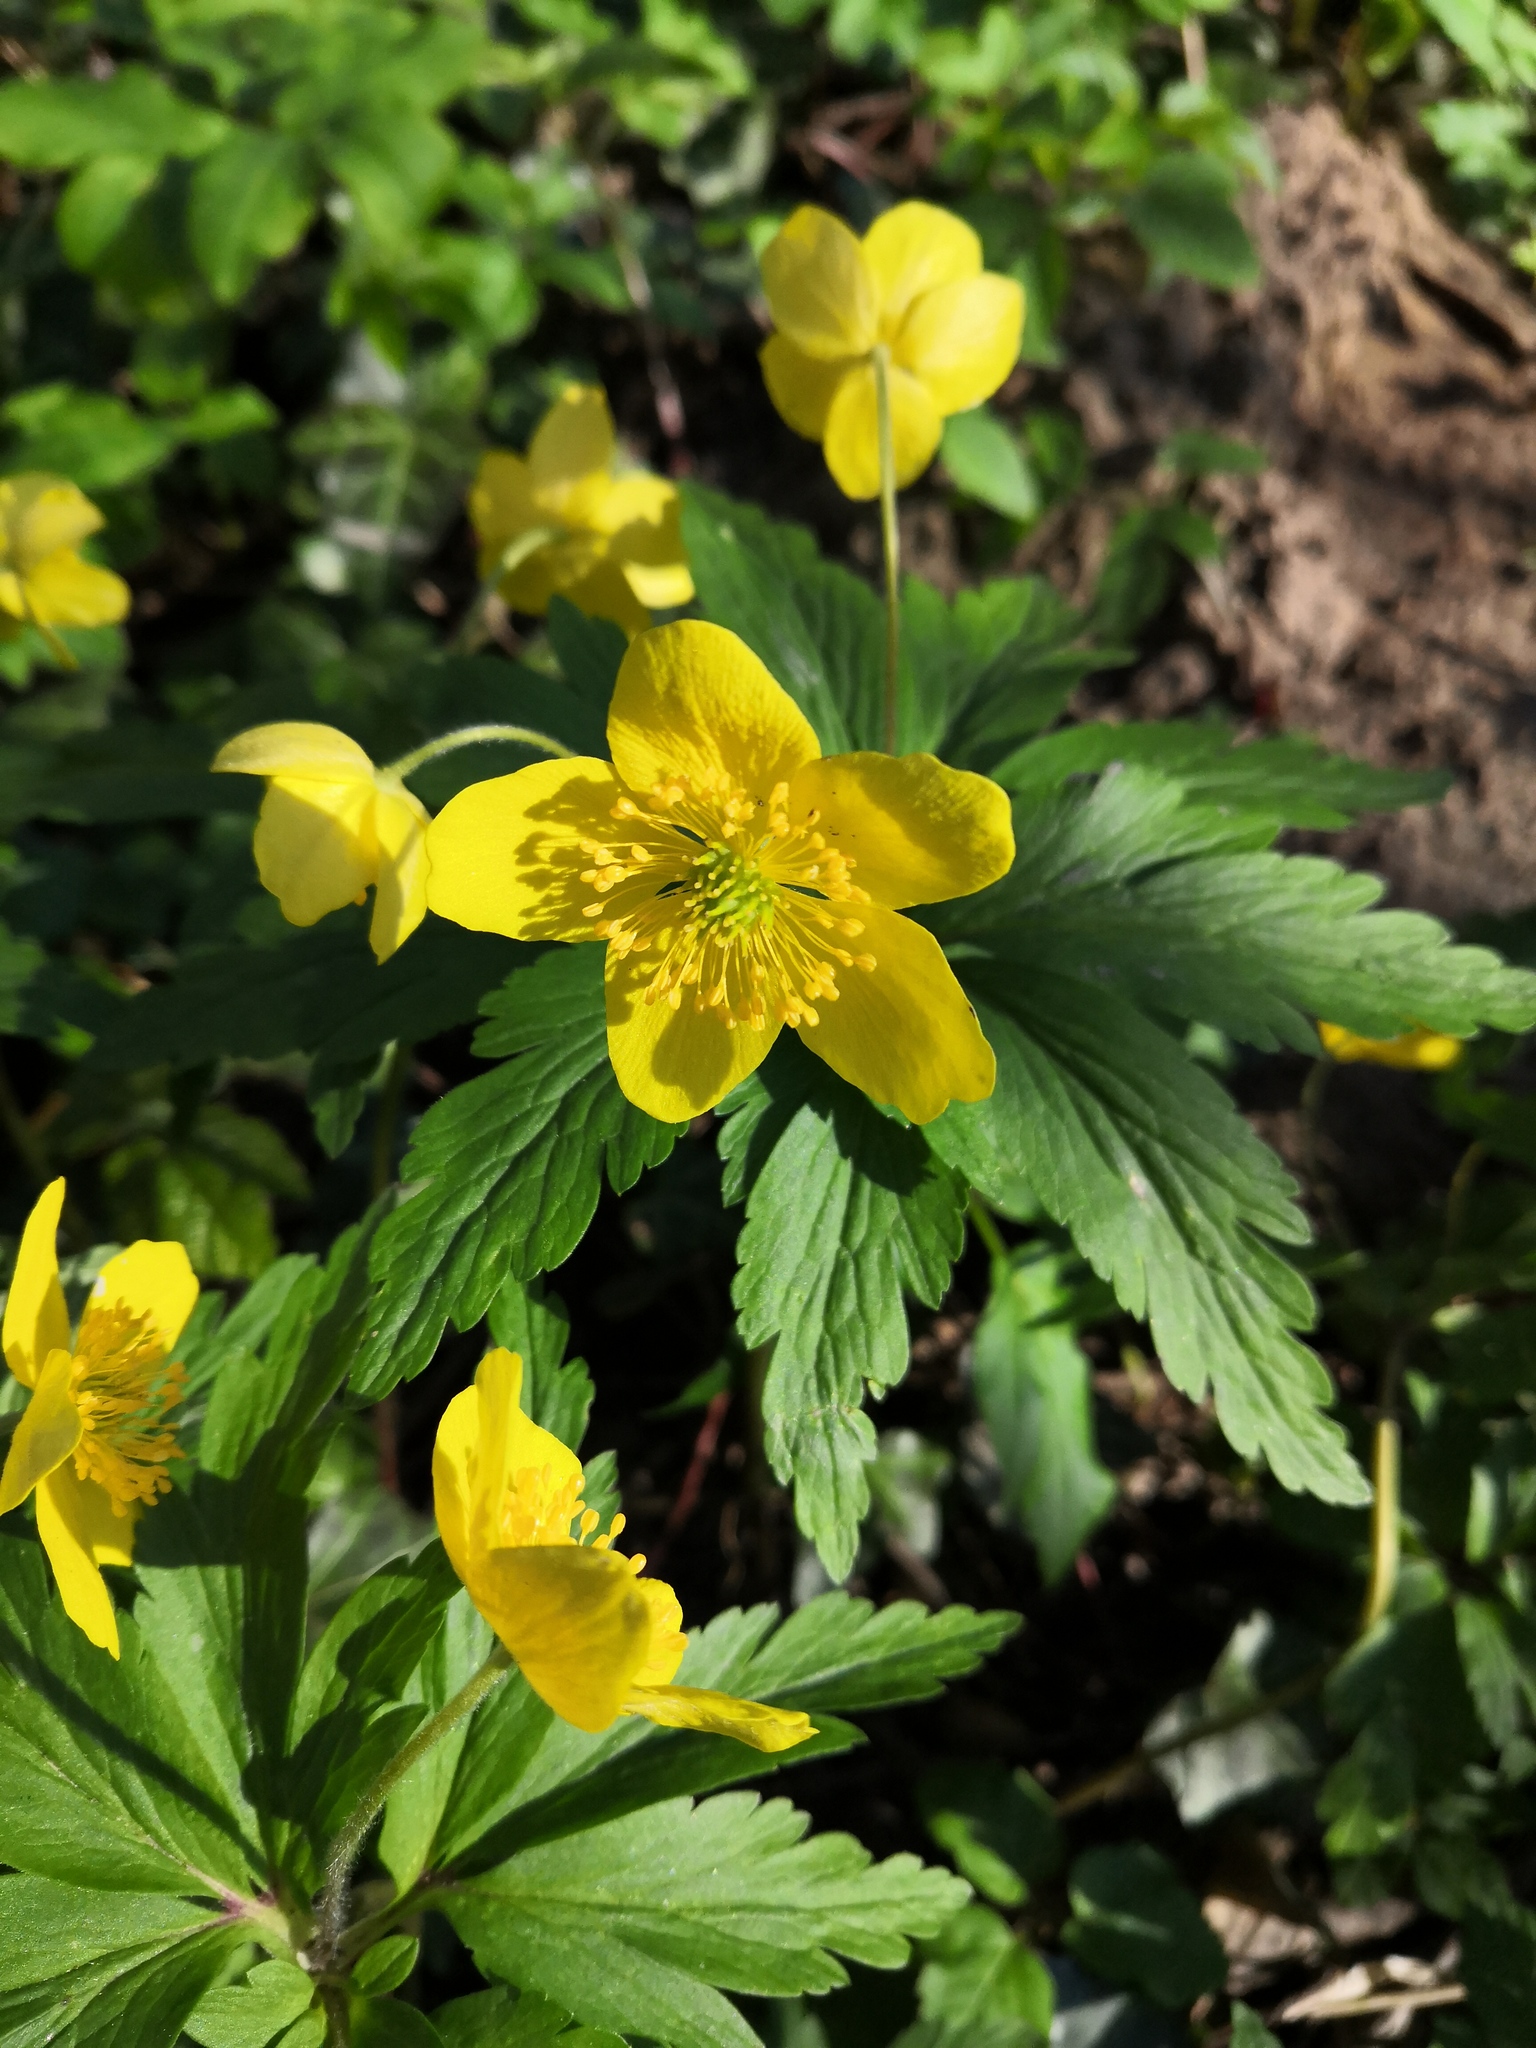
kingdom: Plantae
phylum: Tracheophyta
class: Magnoliopsida
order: Ranunculales
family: Ranunculaceae
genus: Anemone
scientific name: Anemone ranunculoides
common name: Yellow anemone
